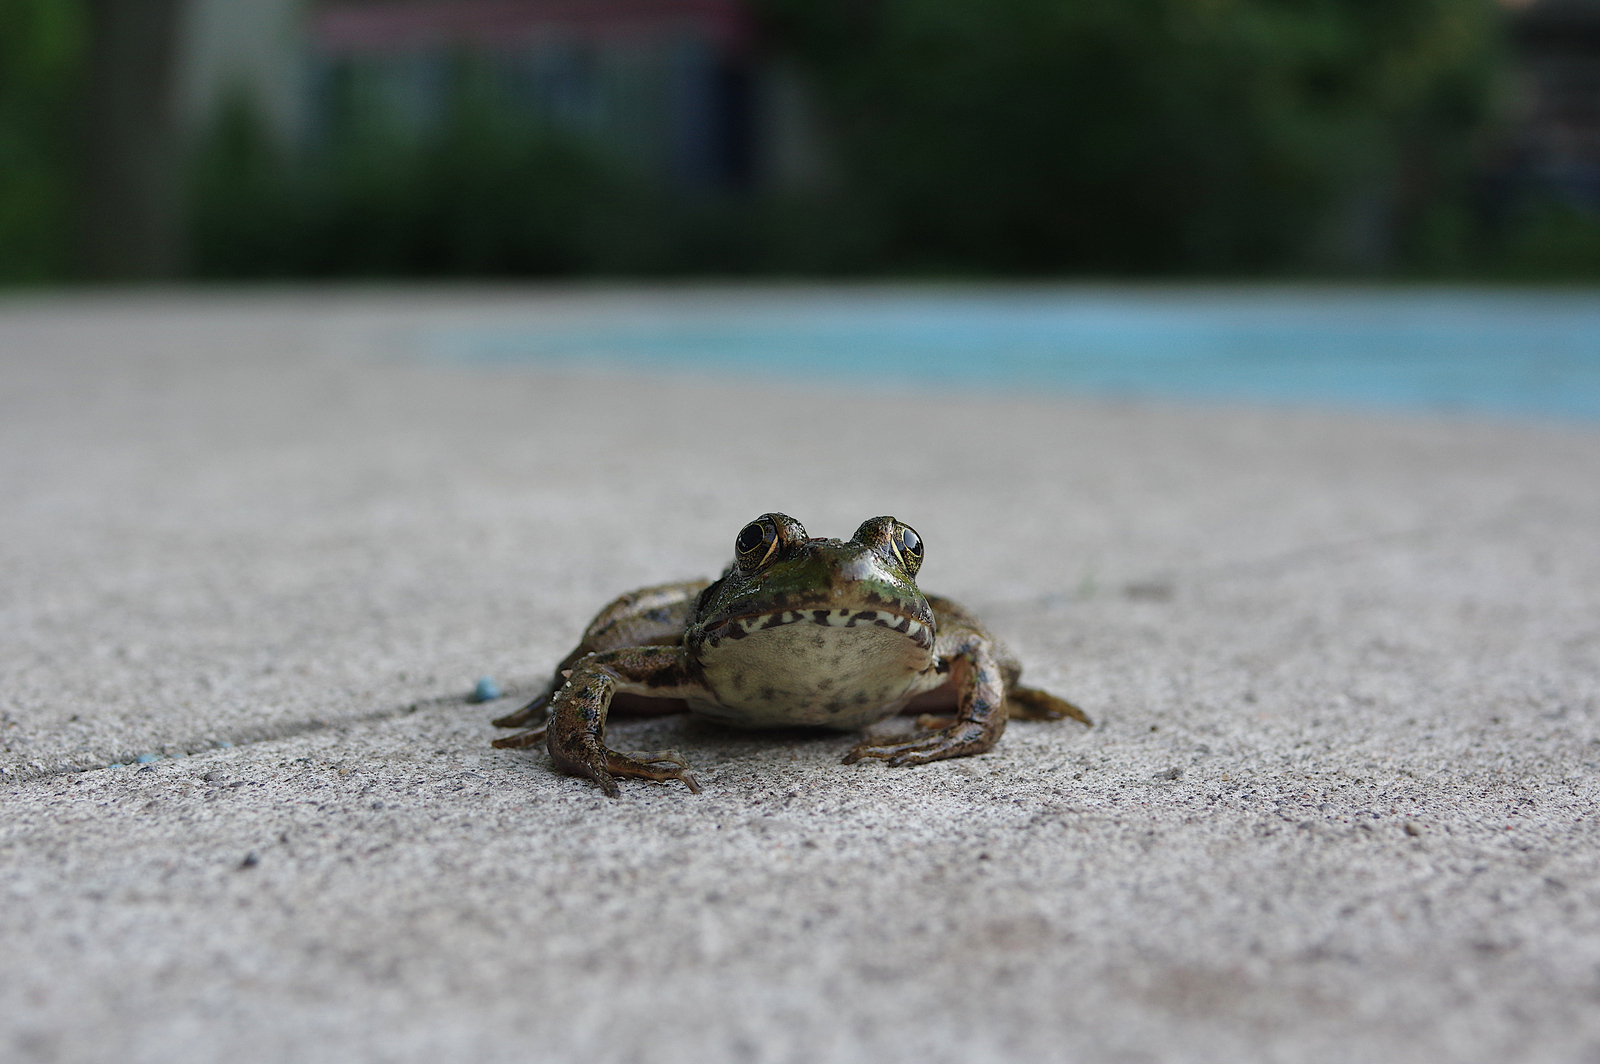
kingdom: Animalia
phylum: Chordata
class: Amphibia
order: Anura
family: Ranidae
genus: Lithobates
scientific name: Lithobates clamitans
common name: Green frog
